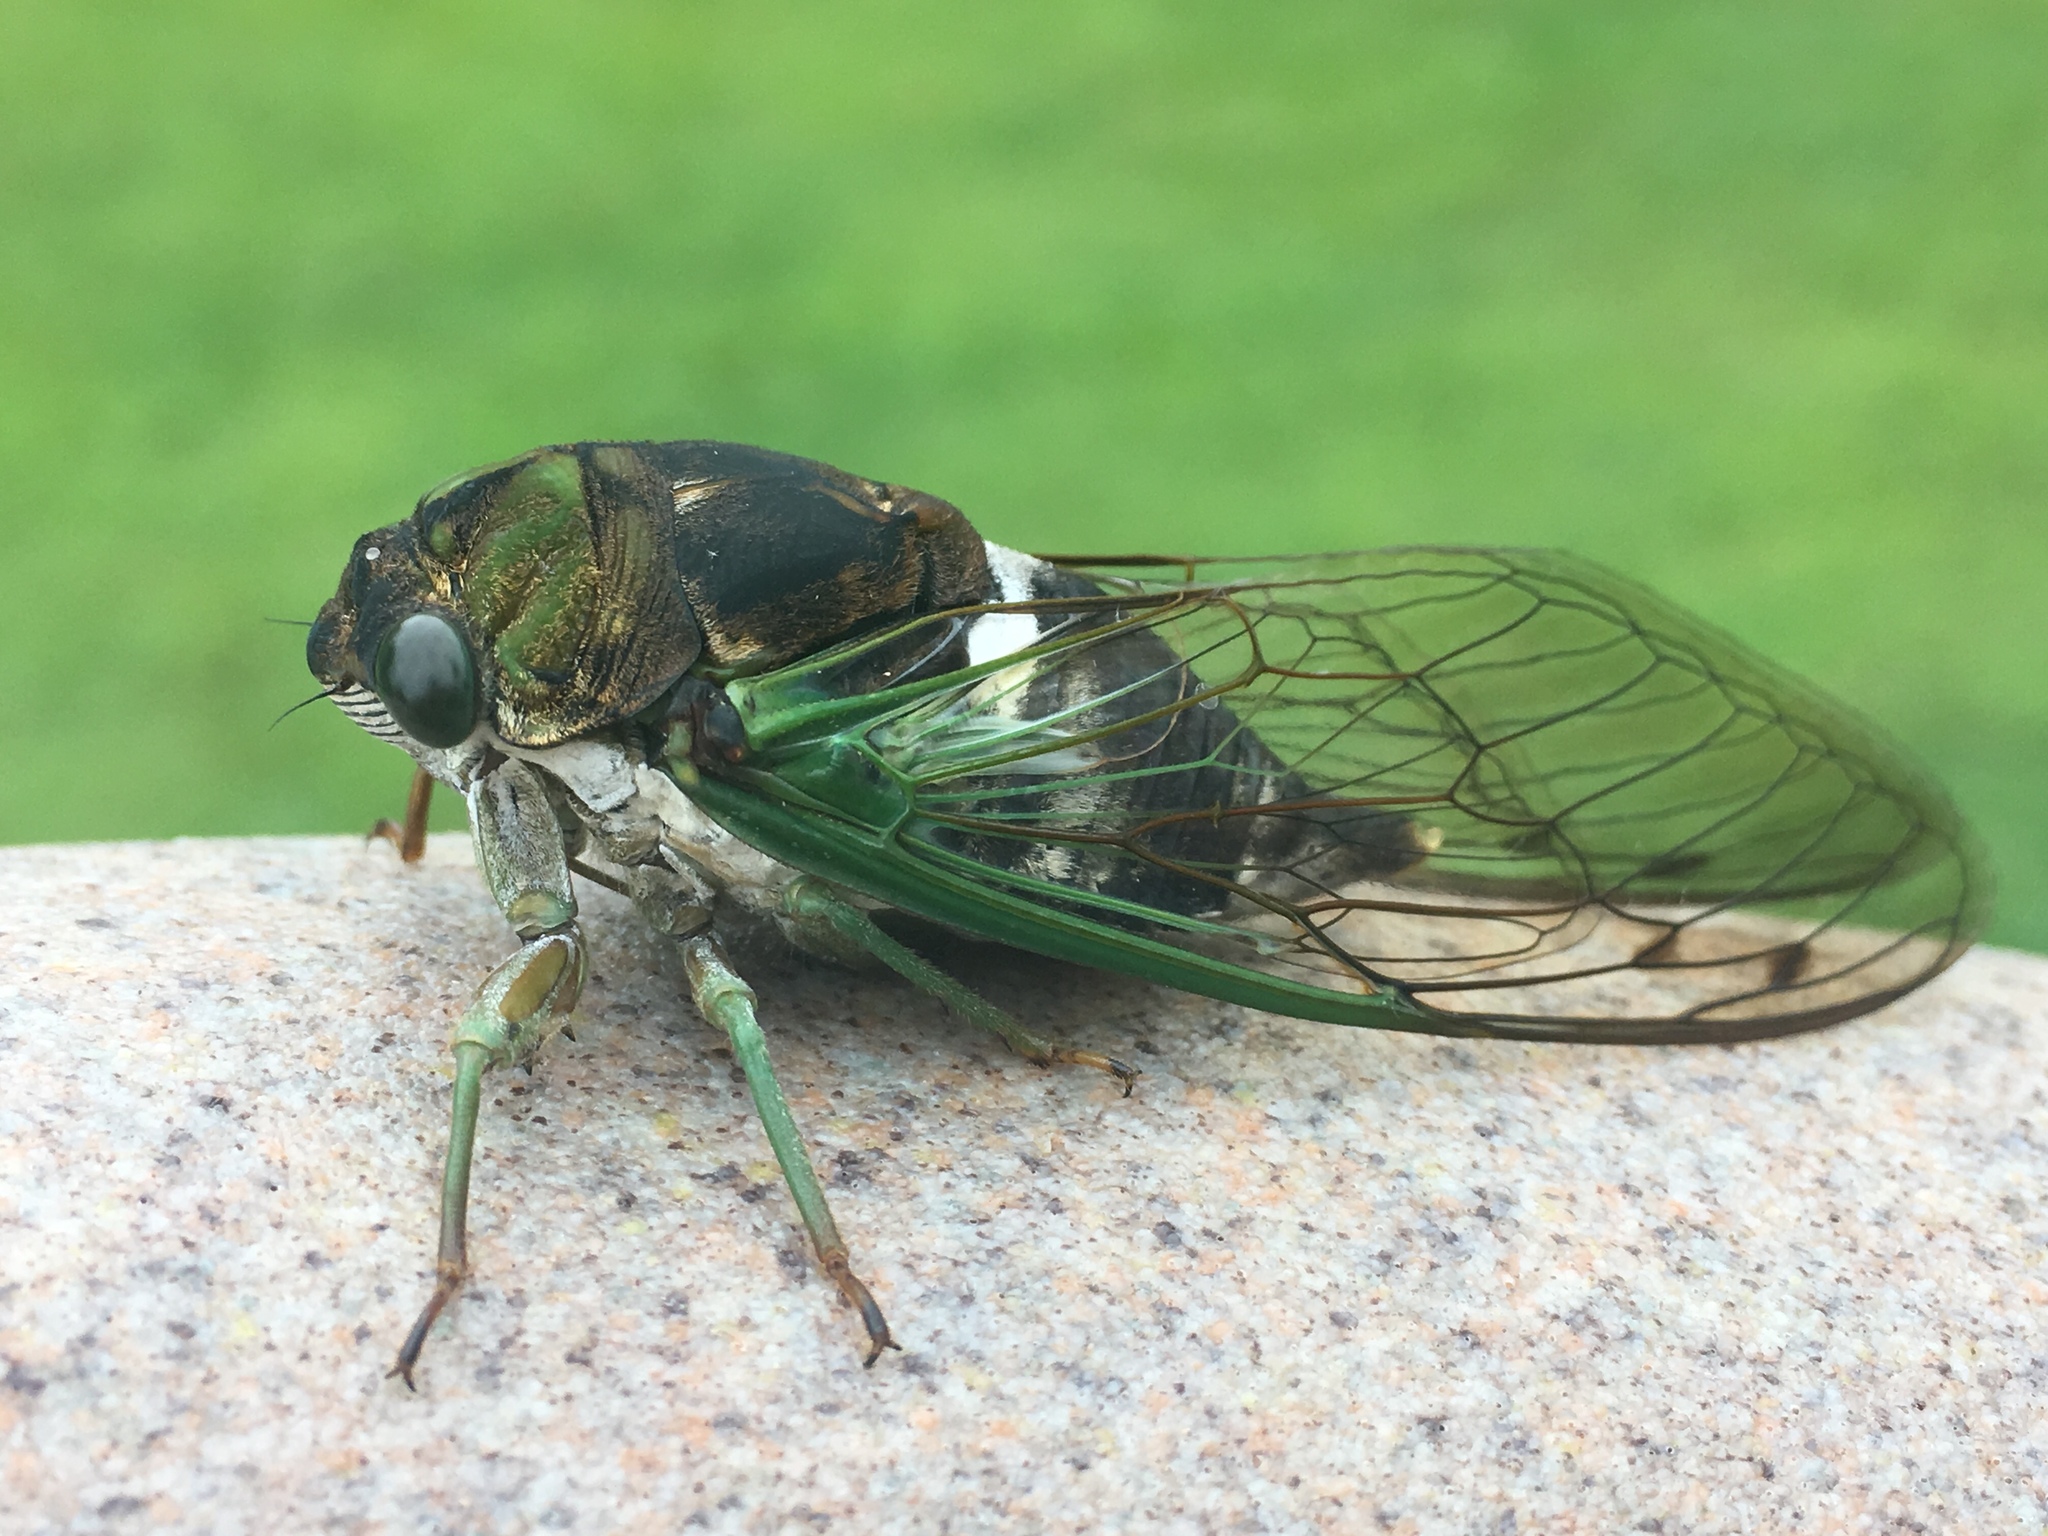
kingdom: Animalia
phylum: Arthropoda
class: Insecta
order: Hemiptera
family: Cicadidae
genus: Neotibicen
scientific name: Neotibicen tibicen
